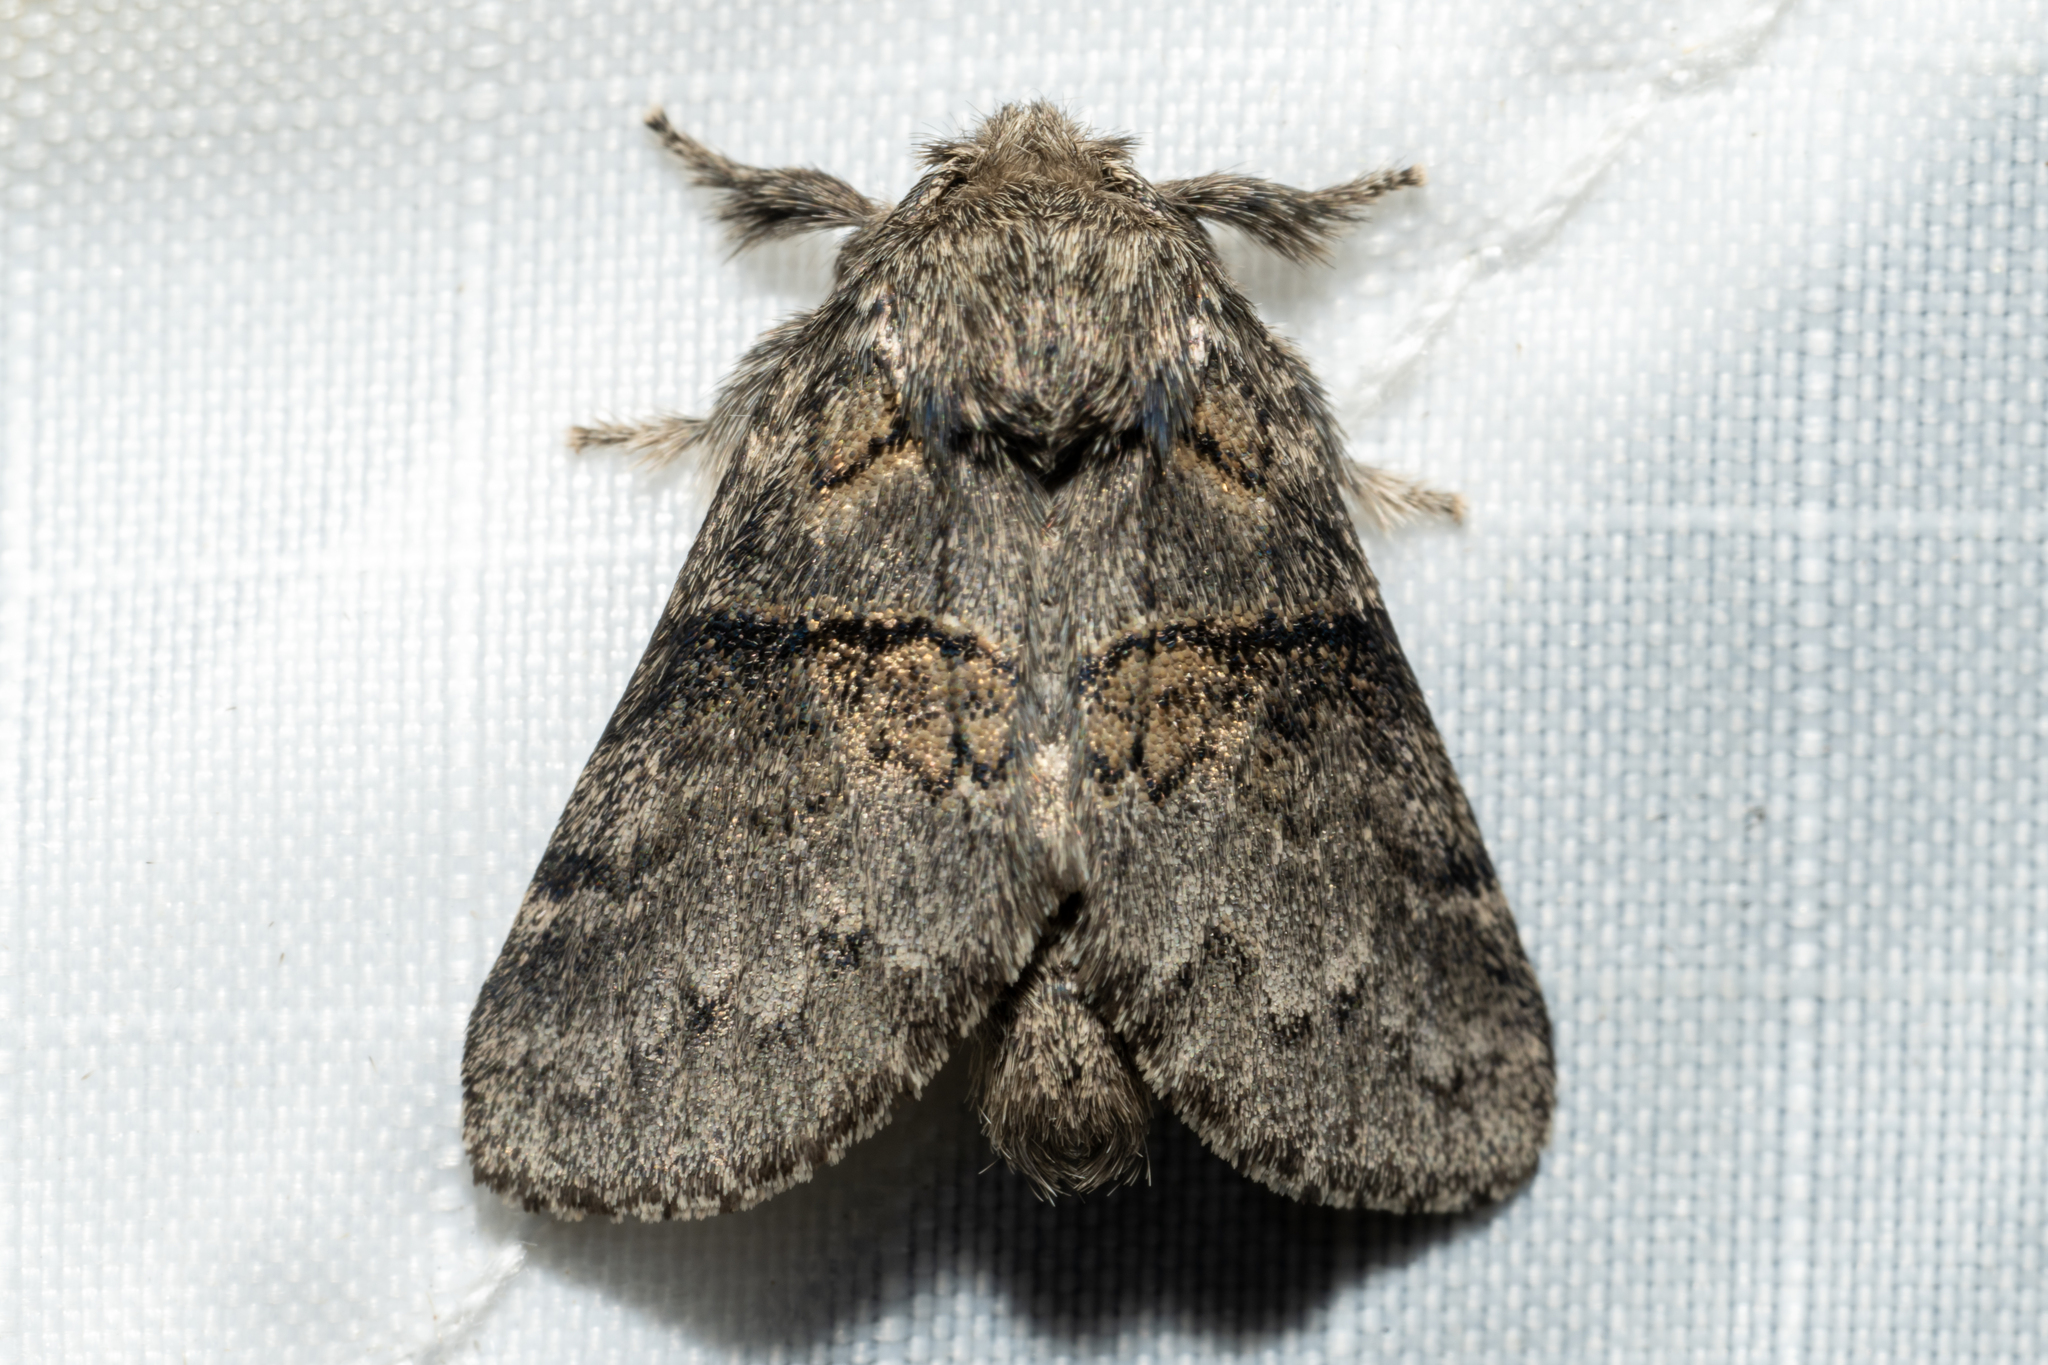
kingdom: Animalia
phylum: Arthropoda
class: Insecta
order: Lepidoptera
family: Notodontidae
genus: Gluphisia
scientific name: Gluphisia septentrionis
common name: Common gluphisia
